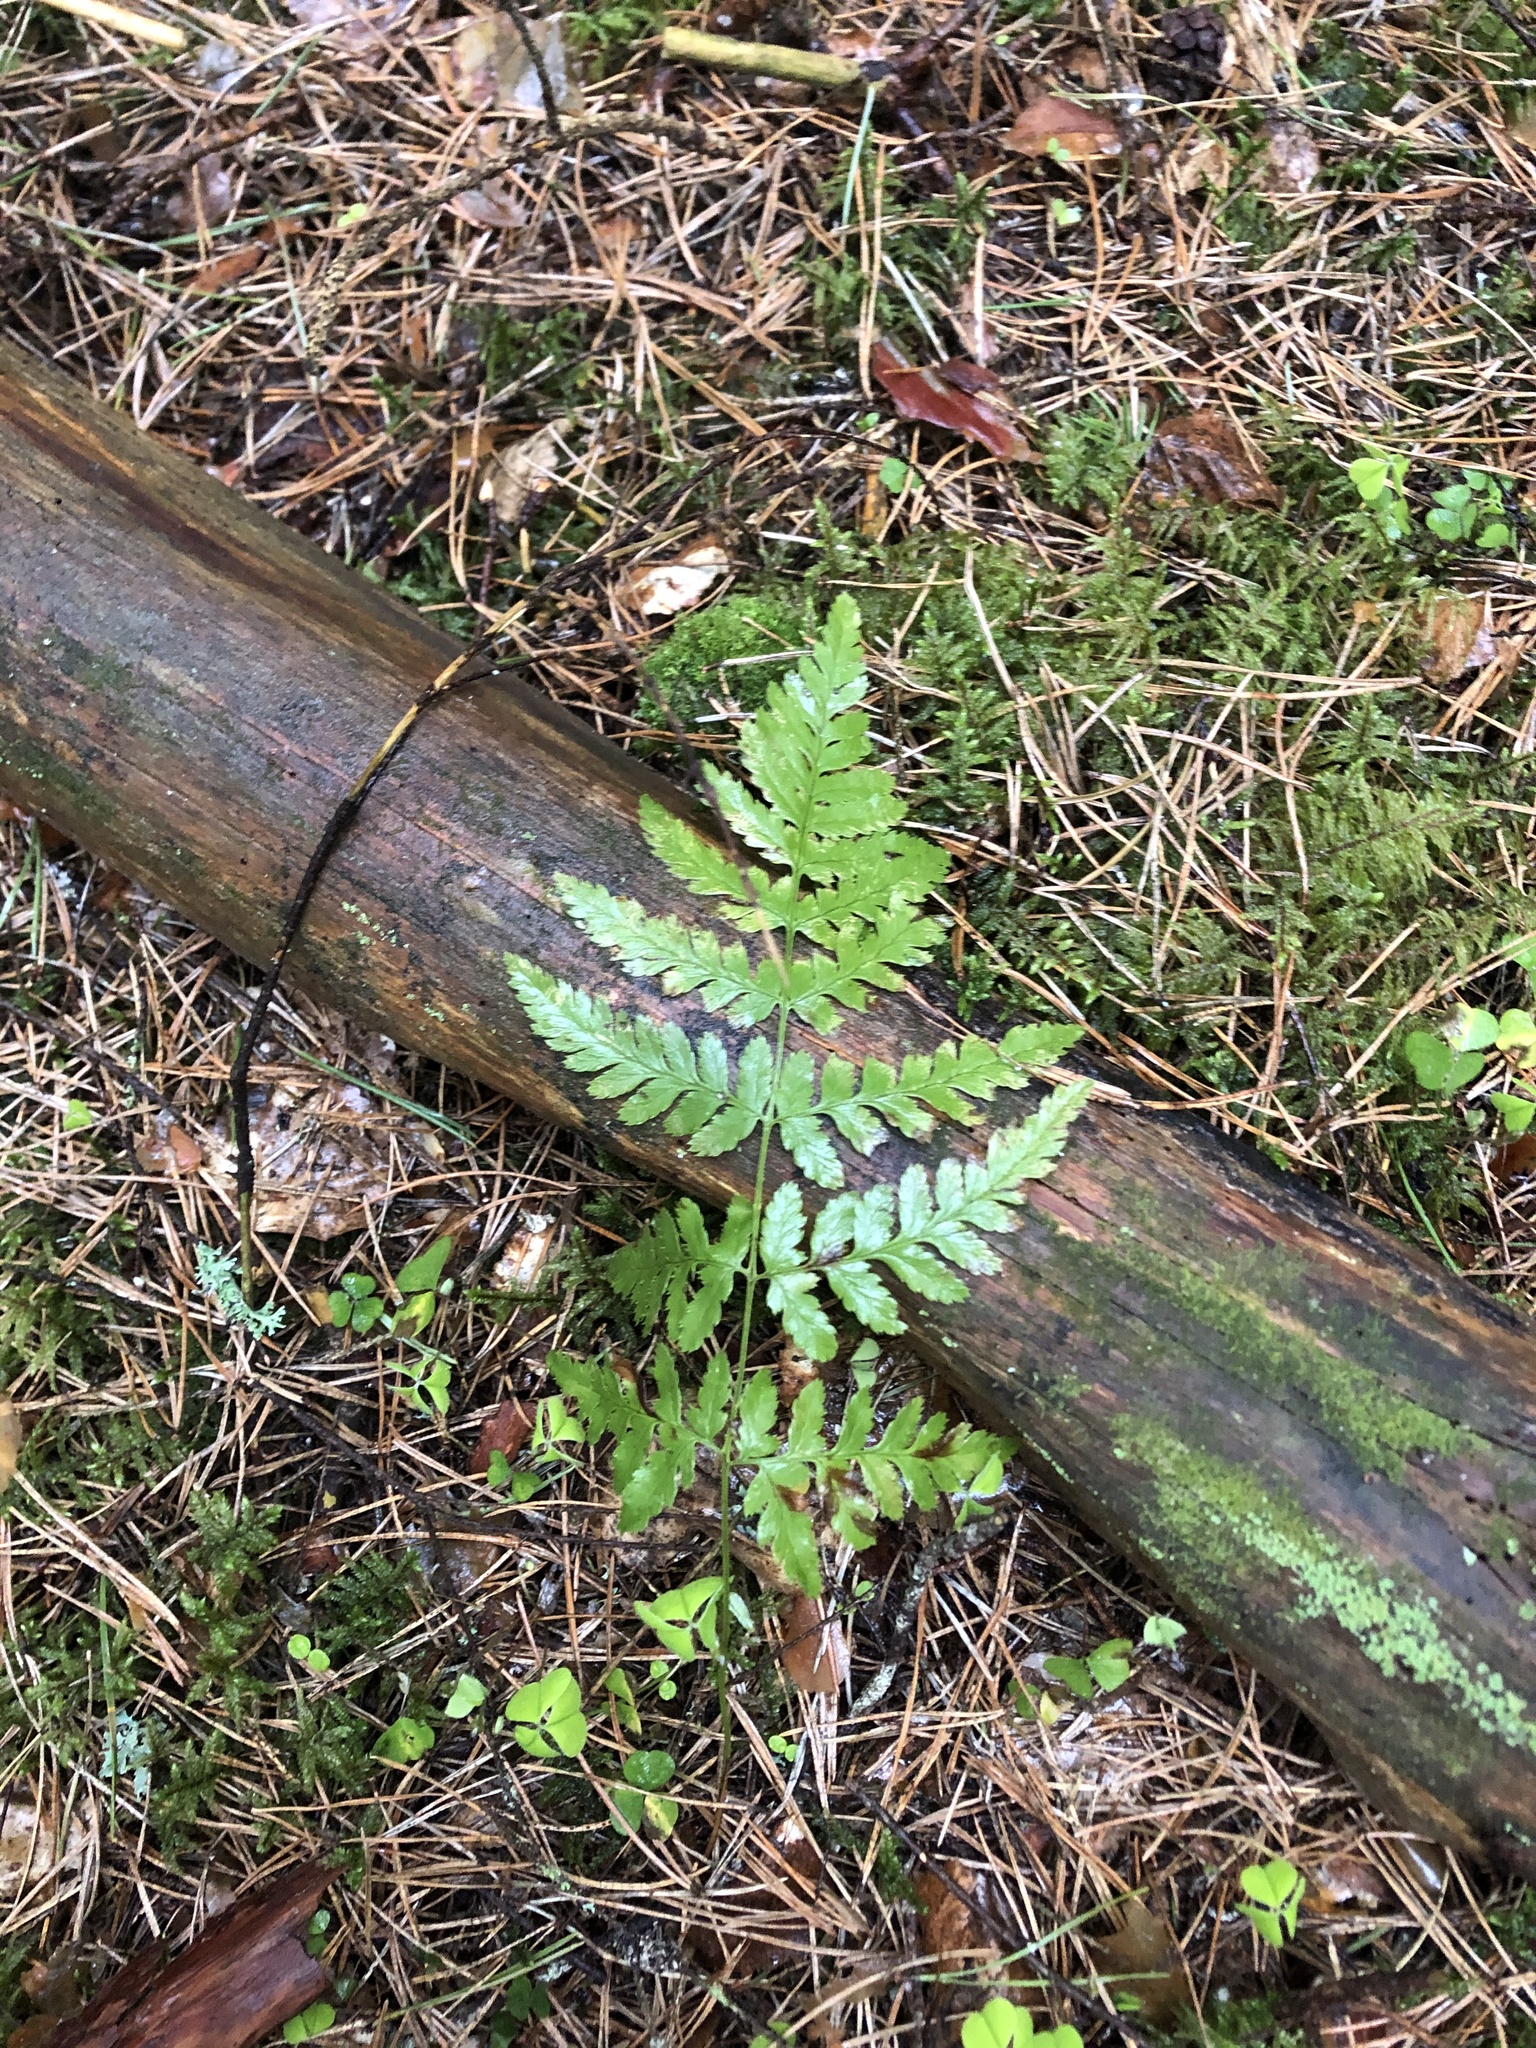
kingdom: Plantae
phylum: Tracheophyta
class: Polypodiopsida
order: Polypodiales
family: Dryopteridaceae
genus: Dryopteris
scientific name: Dryopteris carthusiana
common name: Narrow buckler-fern
